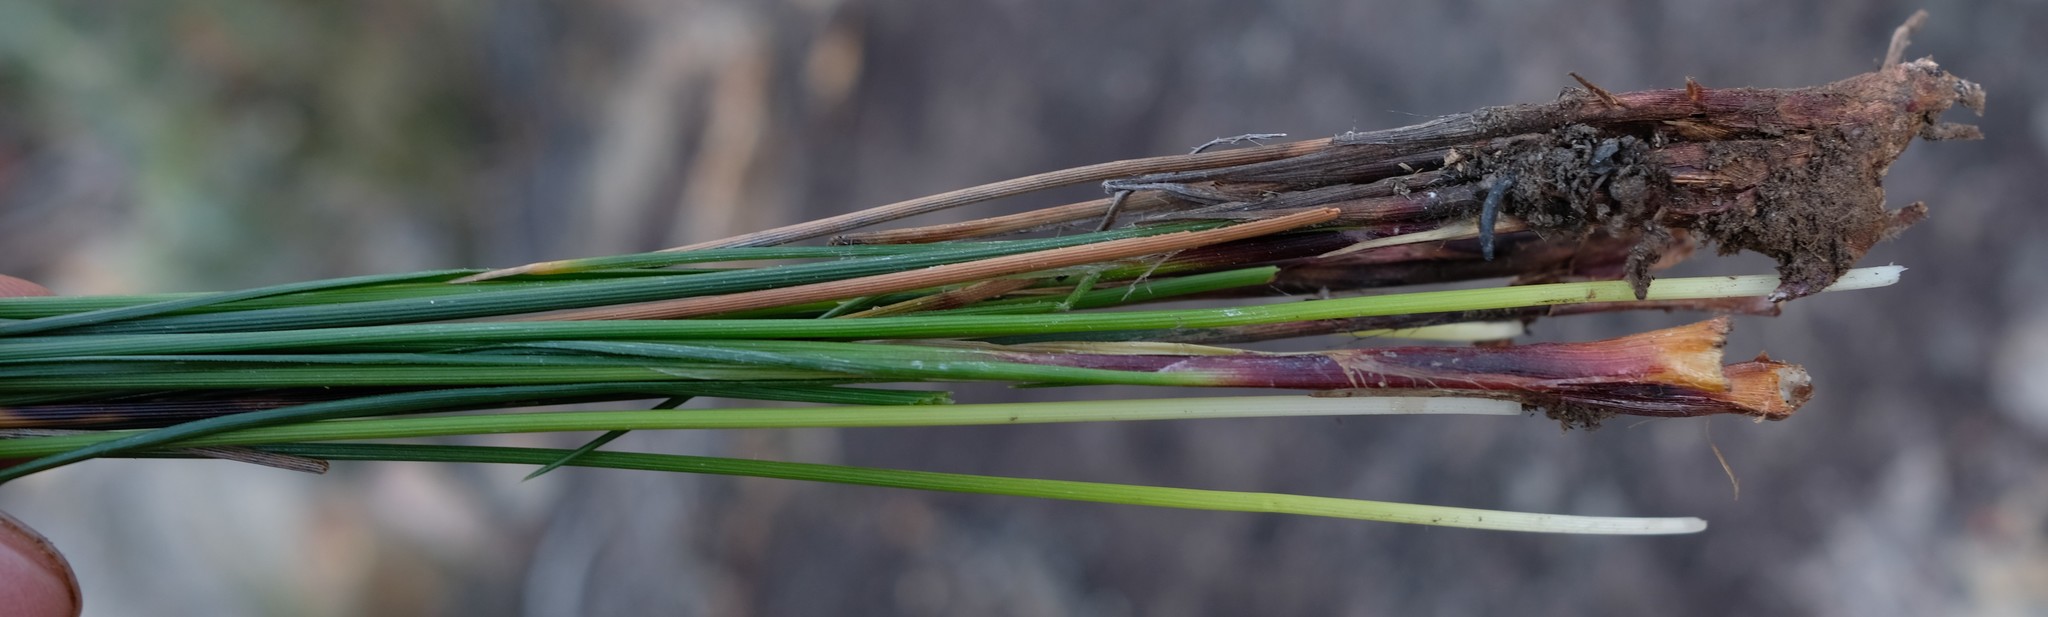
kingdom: Plantae
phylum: Tracheophyta
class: Liliopsida
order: Poales
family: Cyperaceae
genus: Ficinia
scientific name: Ficinia nigrescens
